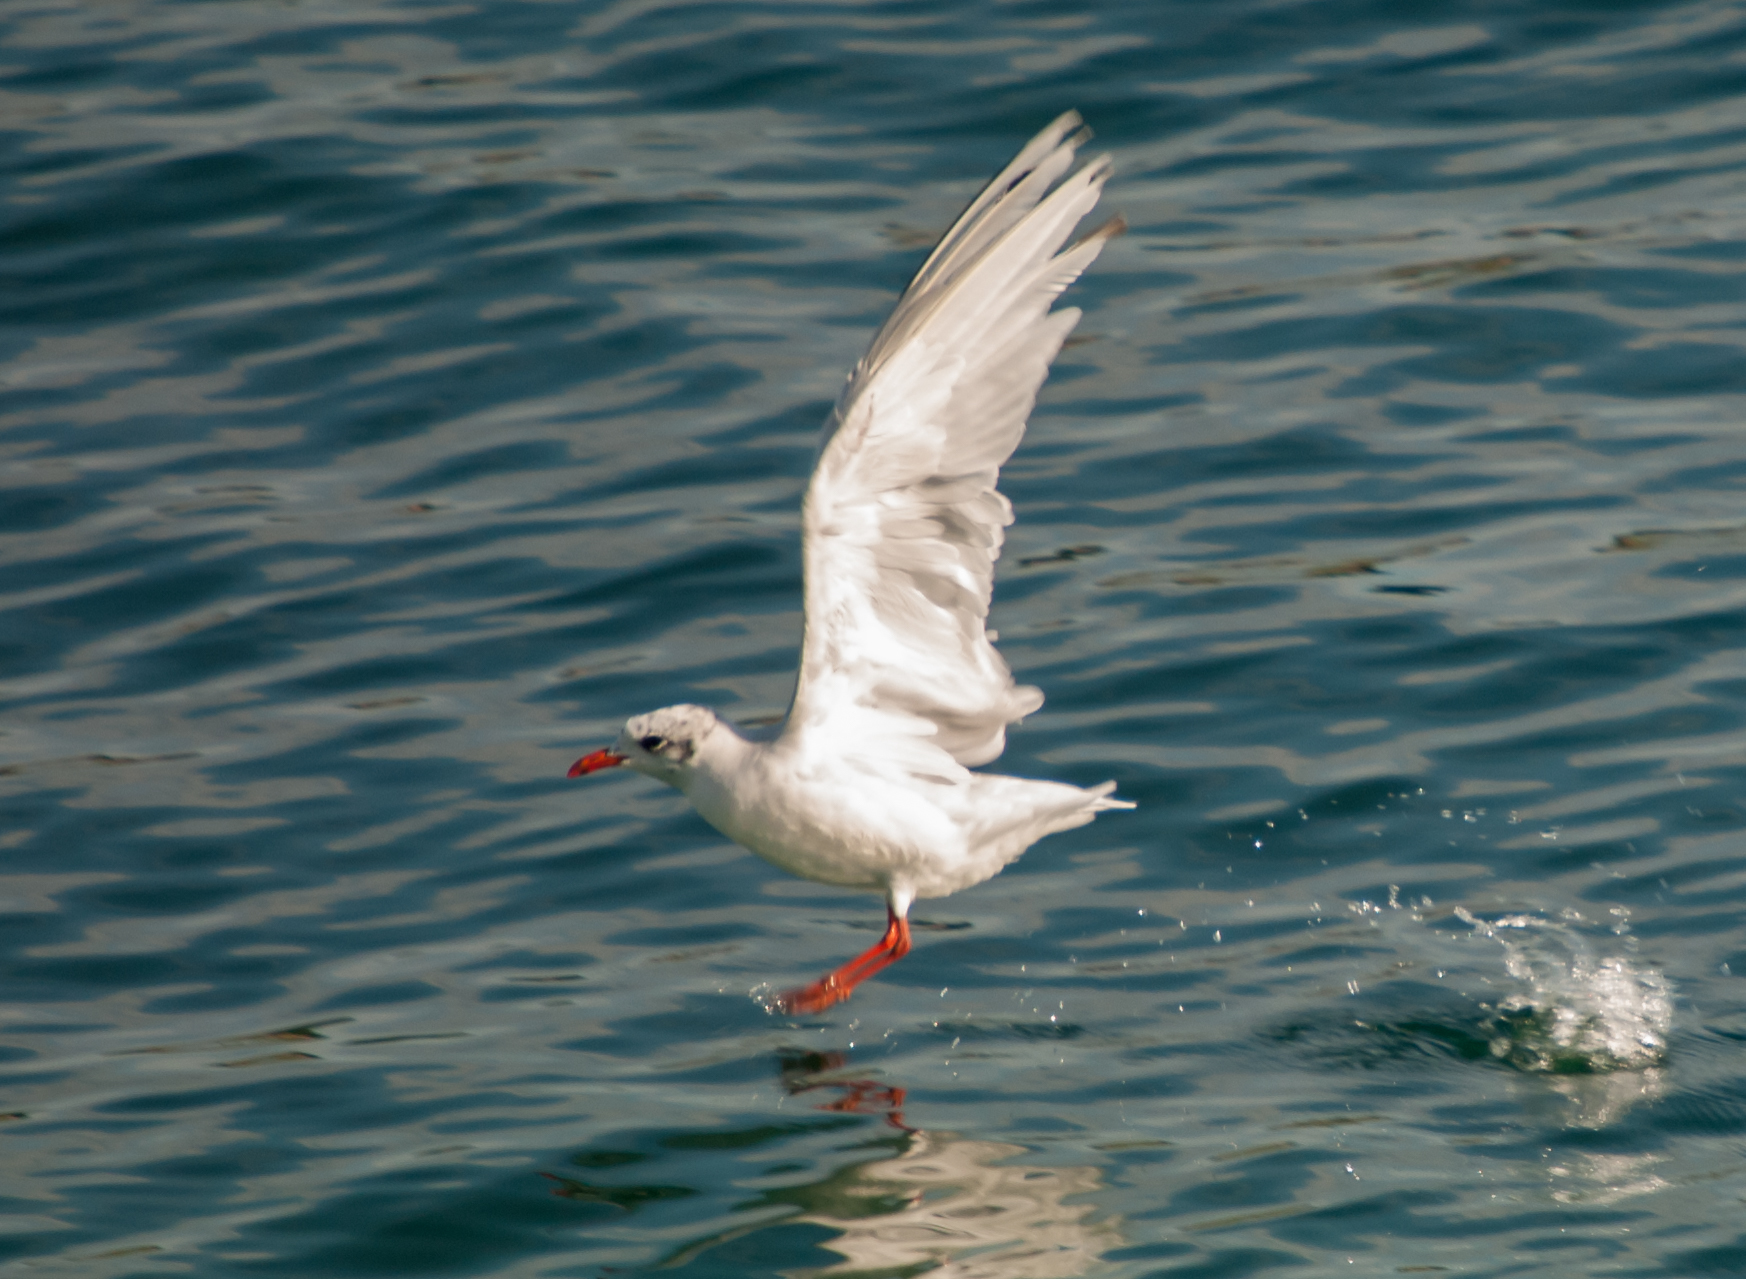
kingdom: Animalia
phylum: Chordata
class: Aves
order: Charadriiformes
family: Laridae
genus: Ichthyaetus
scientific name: Ichthyaetus melanocephalus
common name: Mediterranean gull
